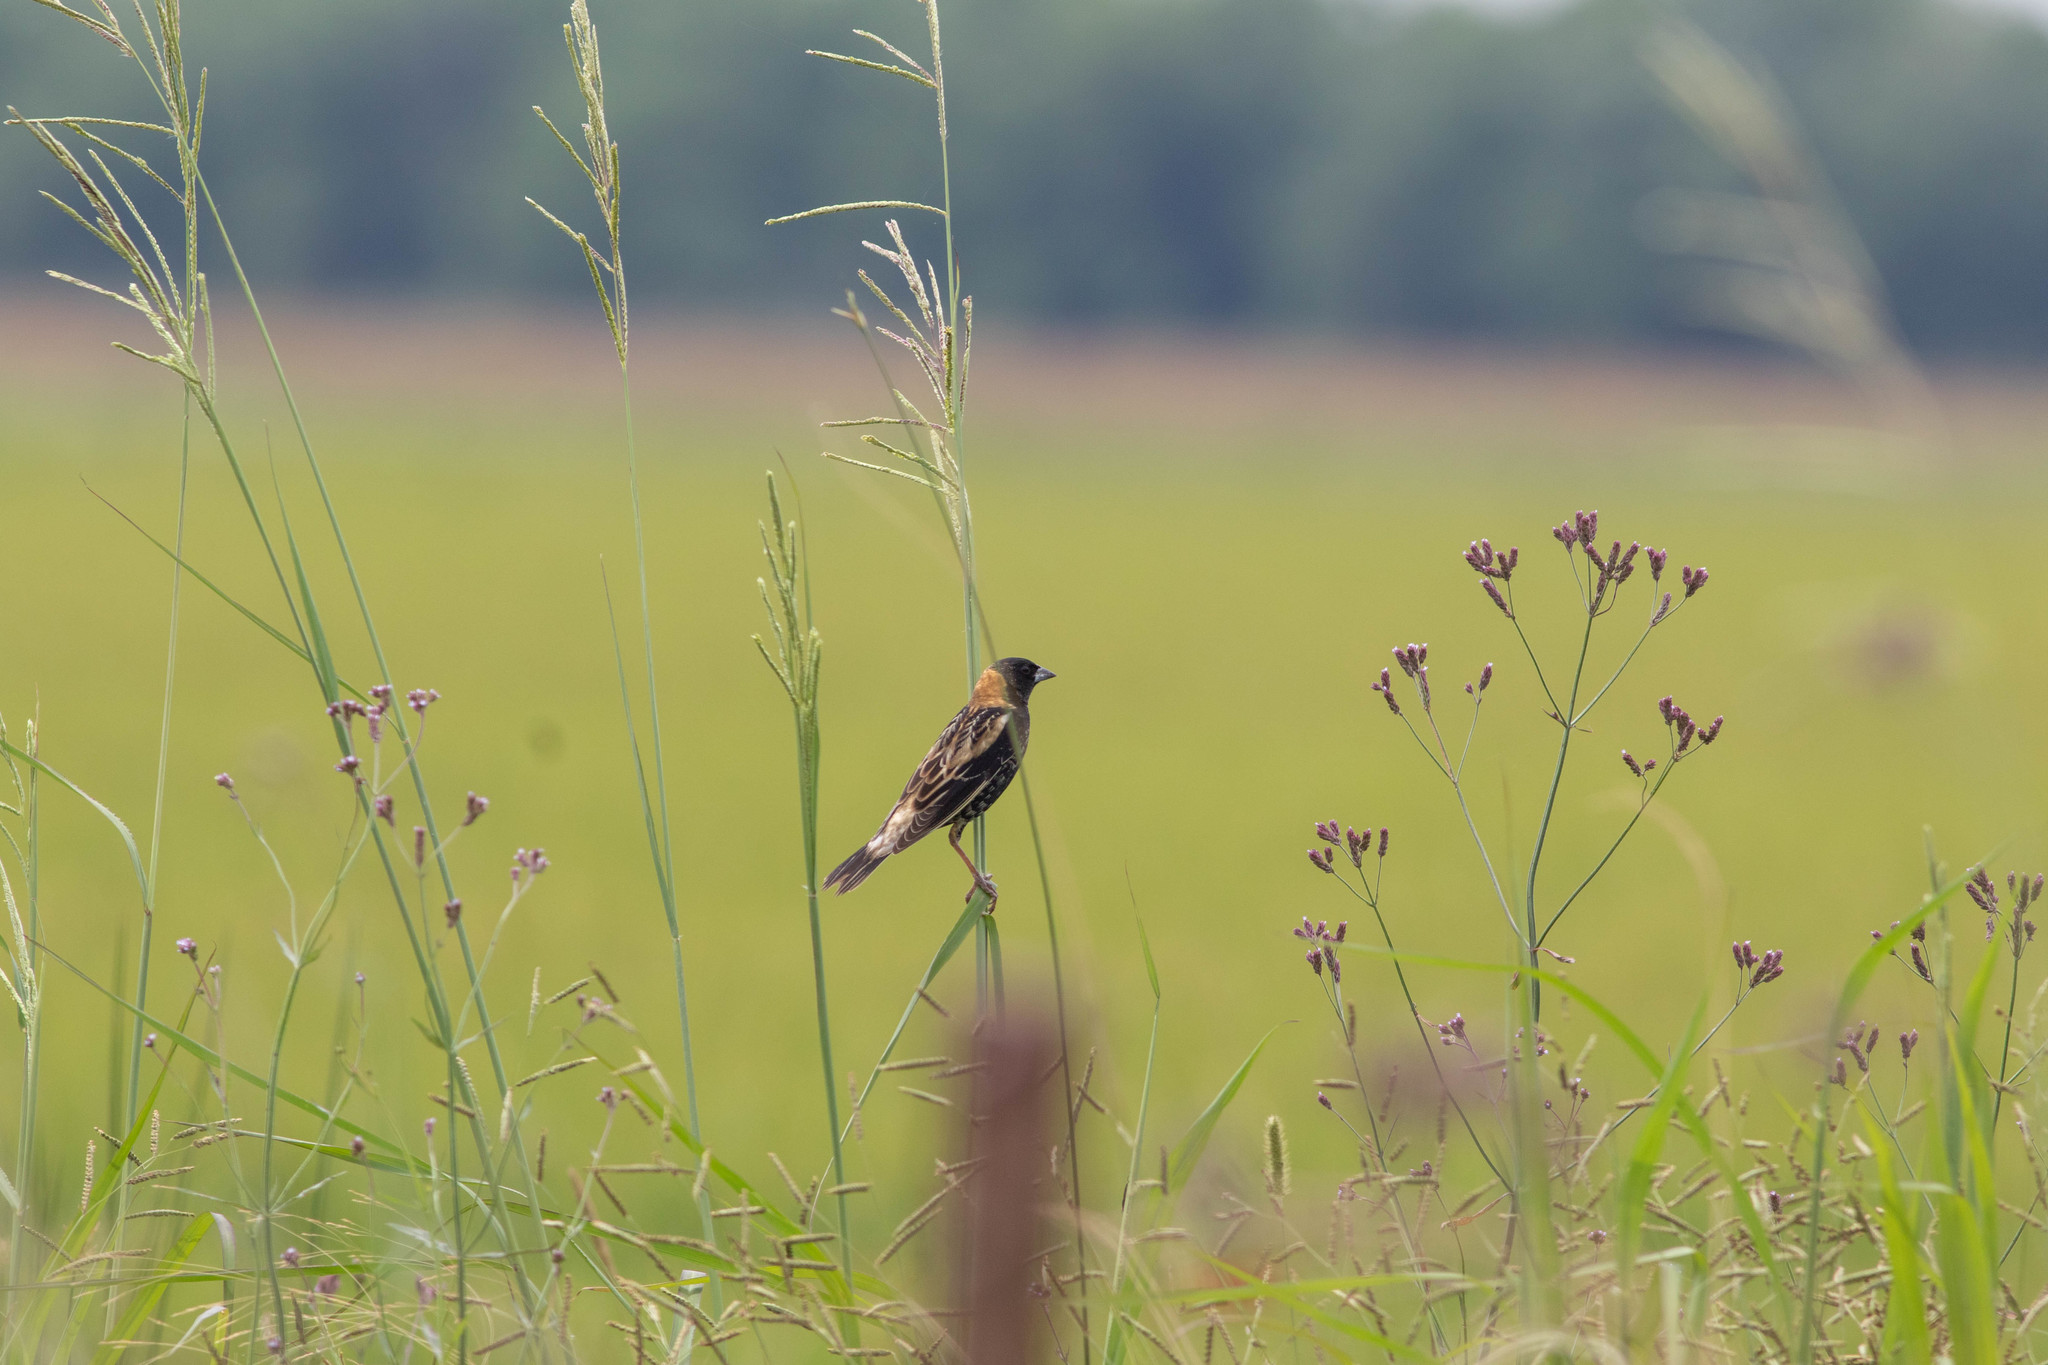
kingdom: Animalia
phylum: Chordata
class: Aves
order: Passeriformes
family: Icteridae
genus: Dolichonyx
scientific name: Dolichonyx oryzivorus
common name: Bobolink
